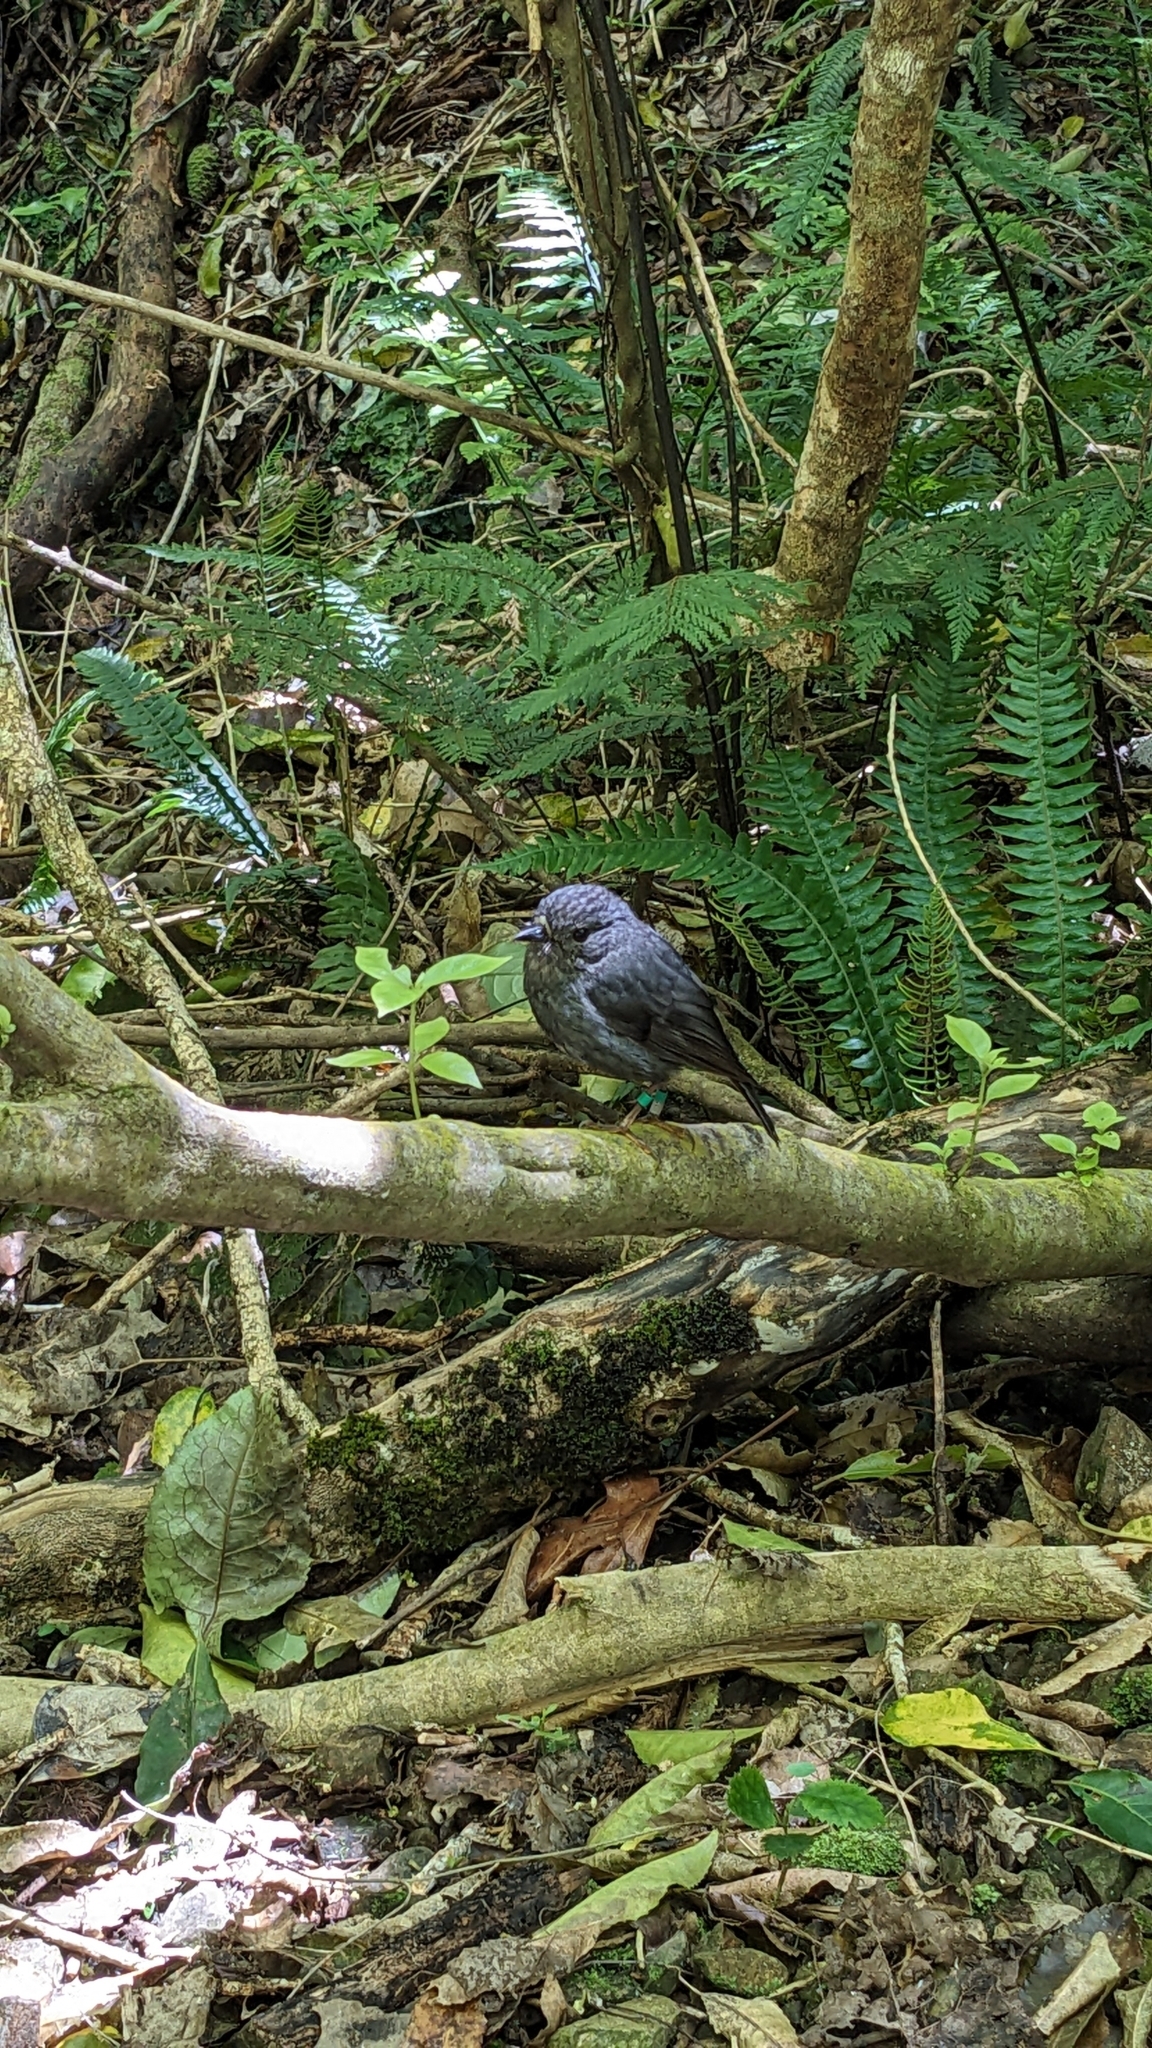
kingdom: Animalia
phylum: Chordata
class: Aves
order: Passeriformes
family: Petroicidae
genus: Petroica
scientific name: Petroica australis
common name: New zealand robin
